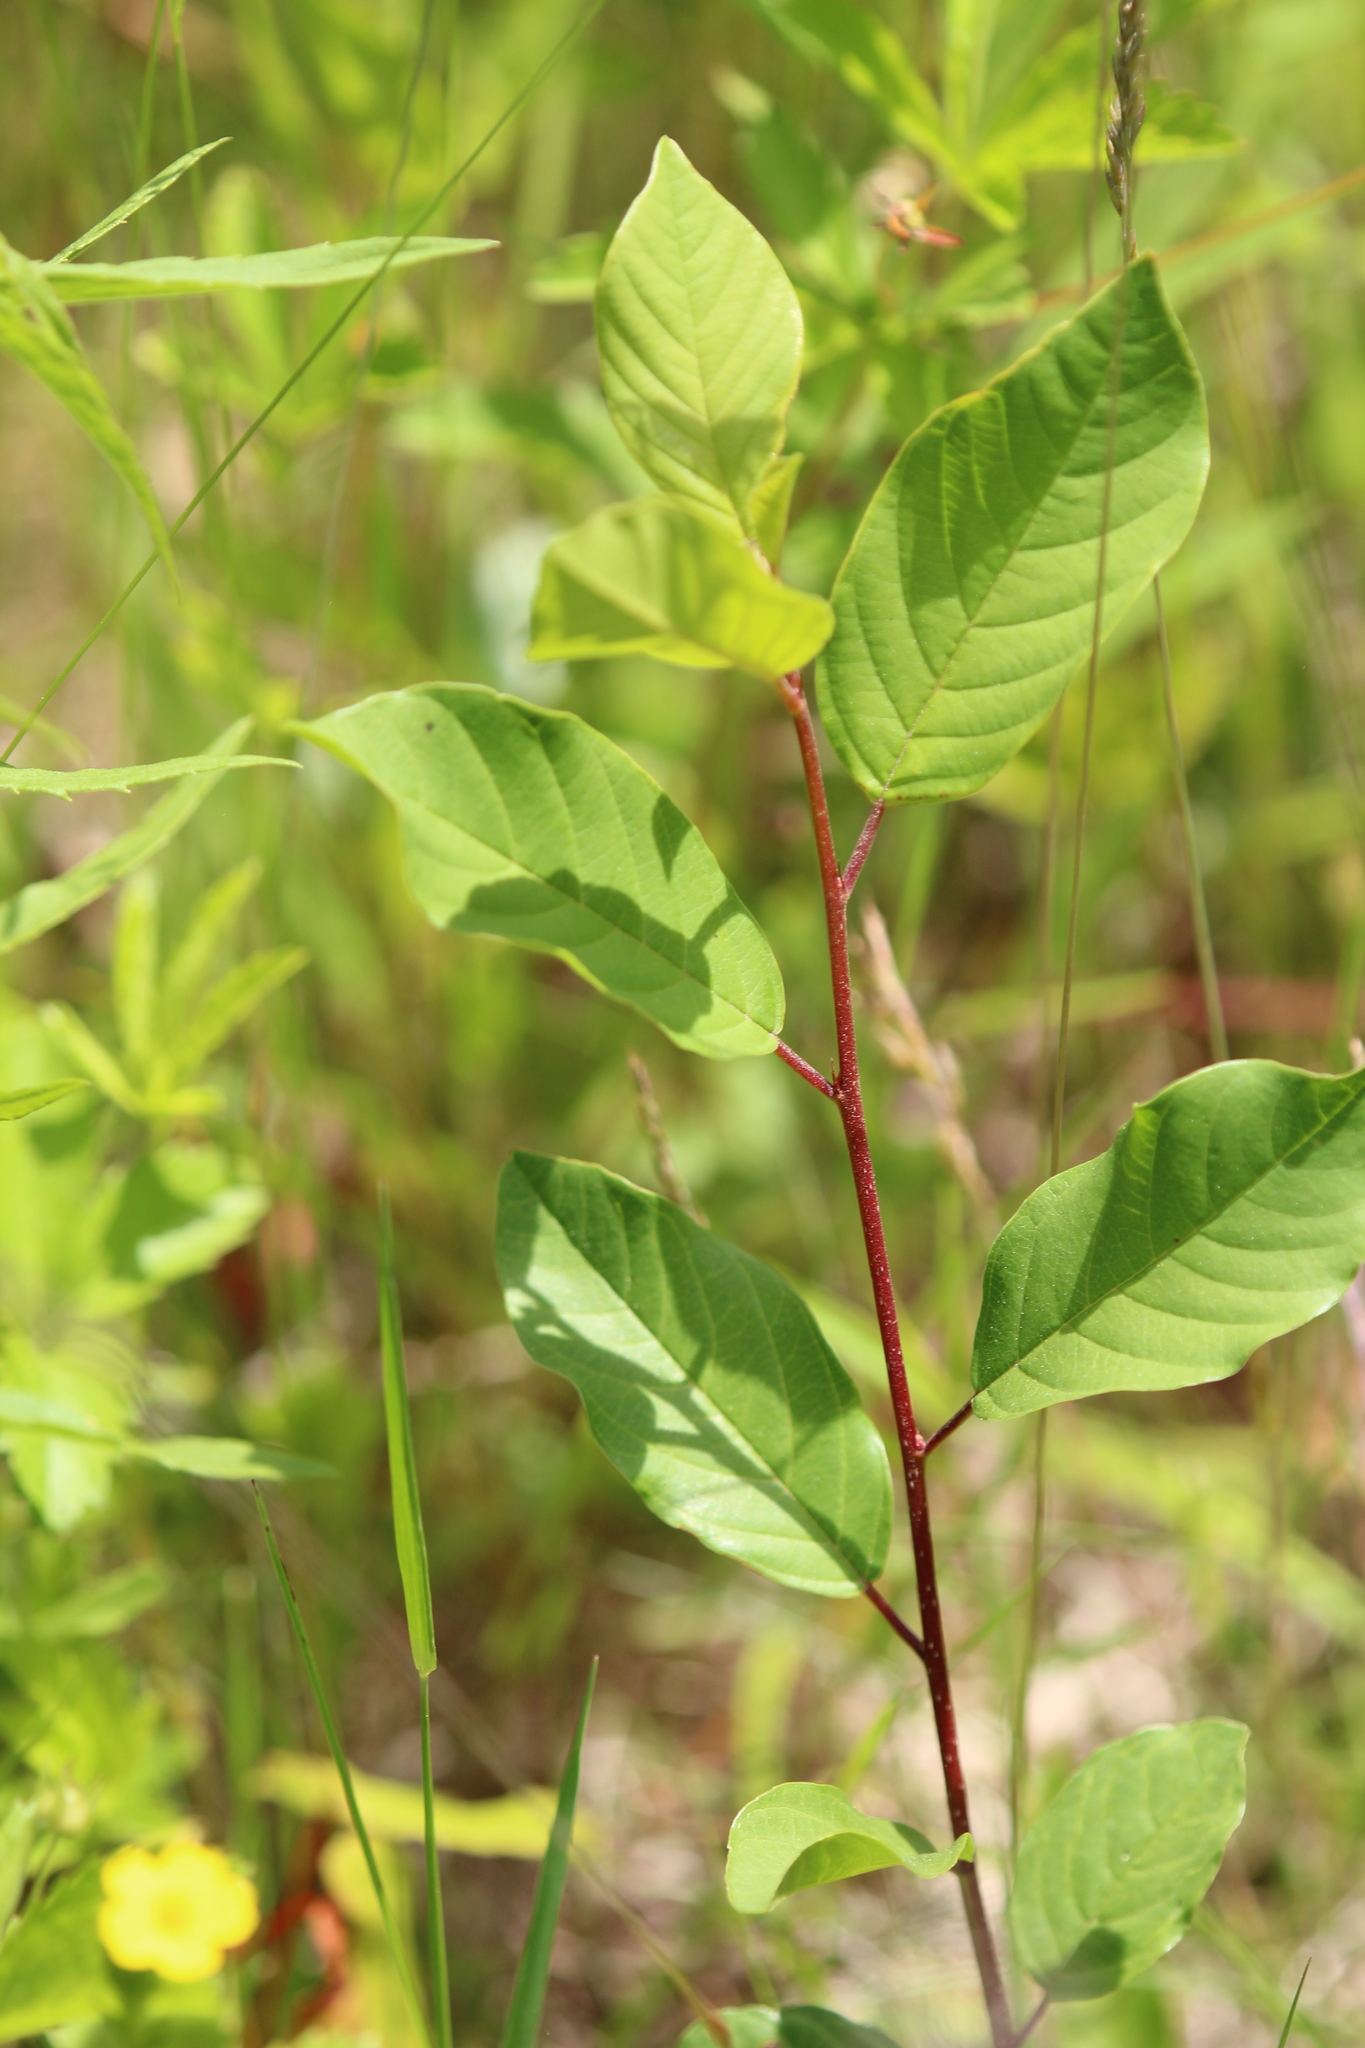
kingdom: Plantae
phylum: Tracheophyta
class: Magnoliopsida
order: Rosales
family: Rhamnaceae
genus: Frangula
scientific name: Frangula alnus
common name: Alder buckthorn
